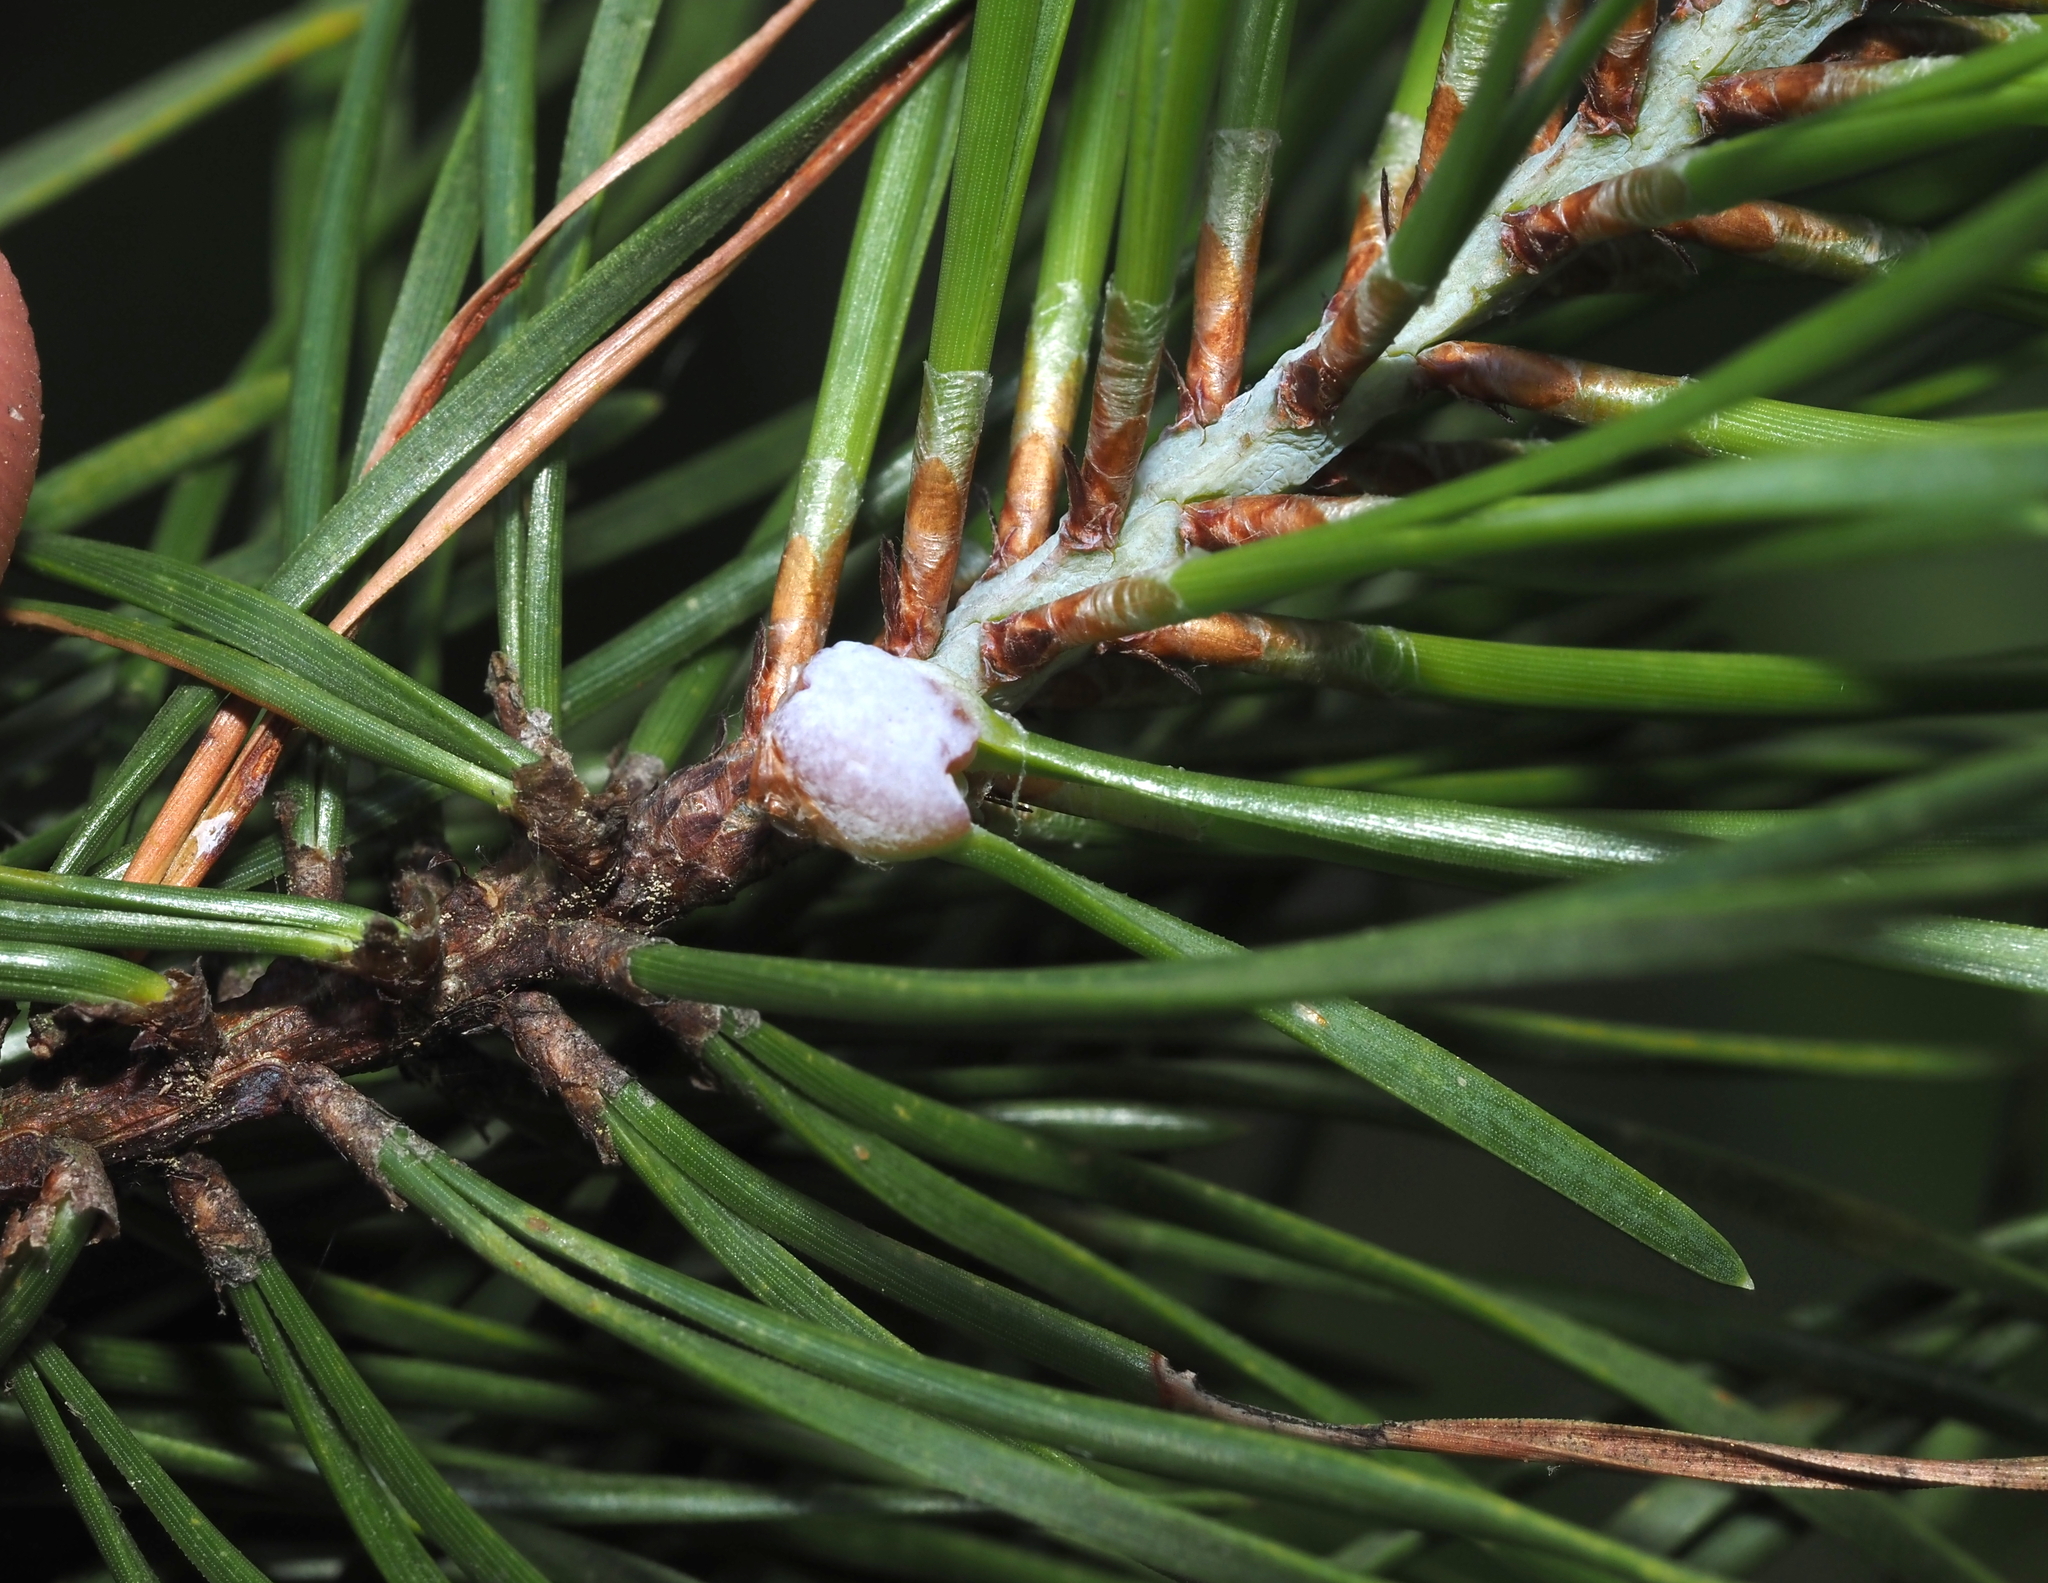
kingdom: Animalia
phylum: Arthropoda
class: Insecta
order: Diptera
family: Cecidomyiidae
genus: Thecodiplosis
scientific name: Thecodiplosis brachynteroides
